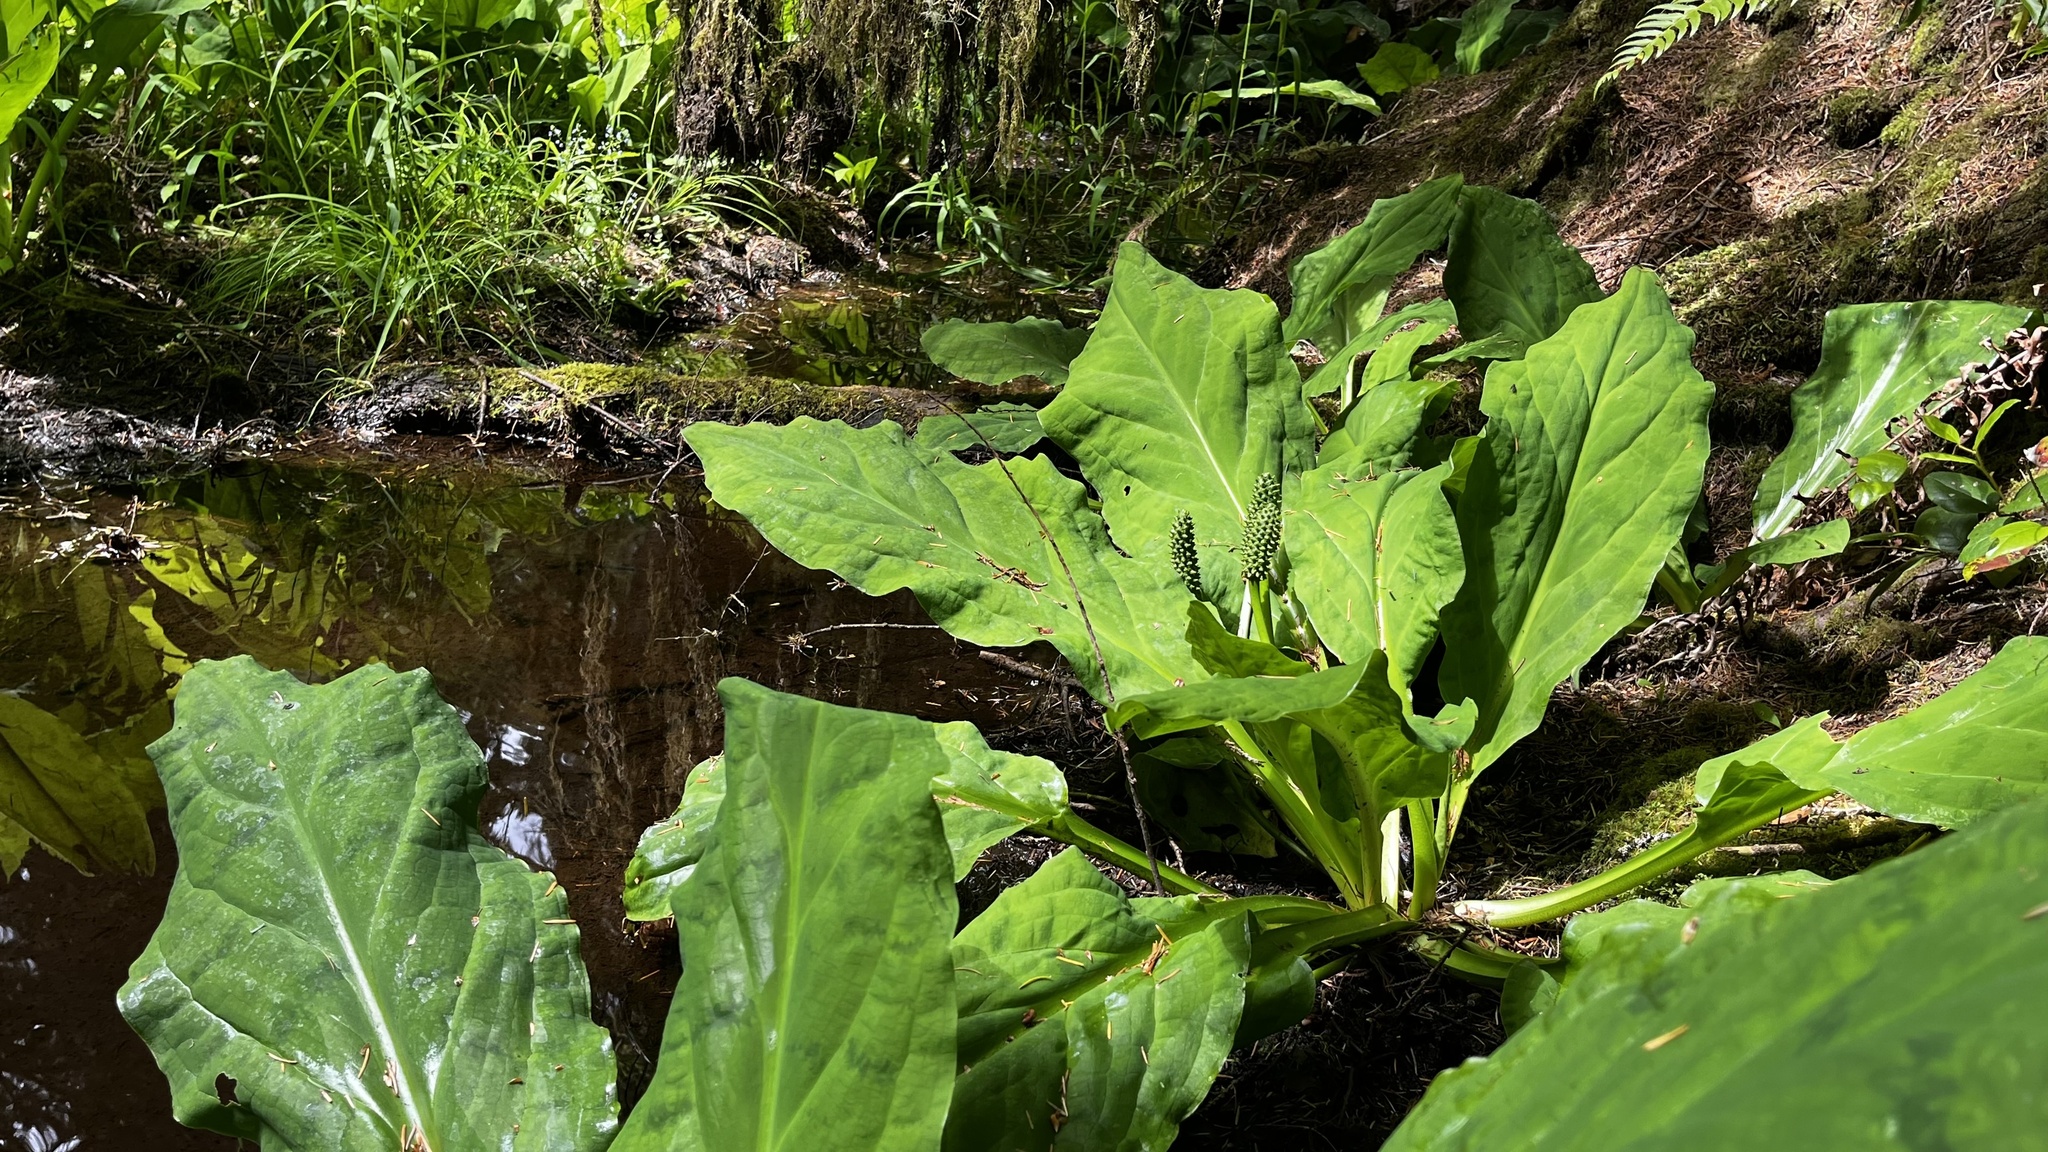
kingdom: Plantae
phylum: Tracheophyta
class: Liliopsida
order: Alismatales
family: Araceae
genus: Lysichiton
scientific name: Lysichiton americanus
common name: American skunk cabbage
